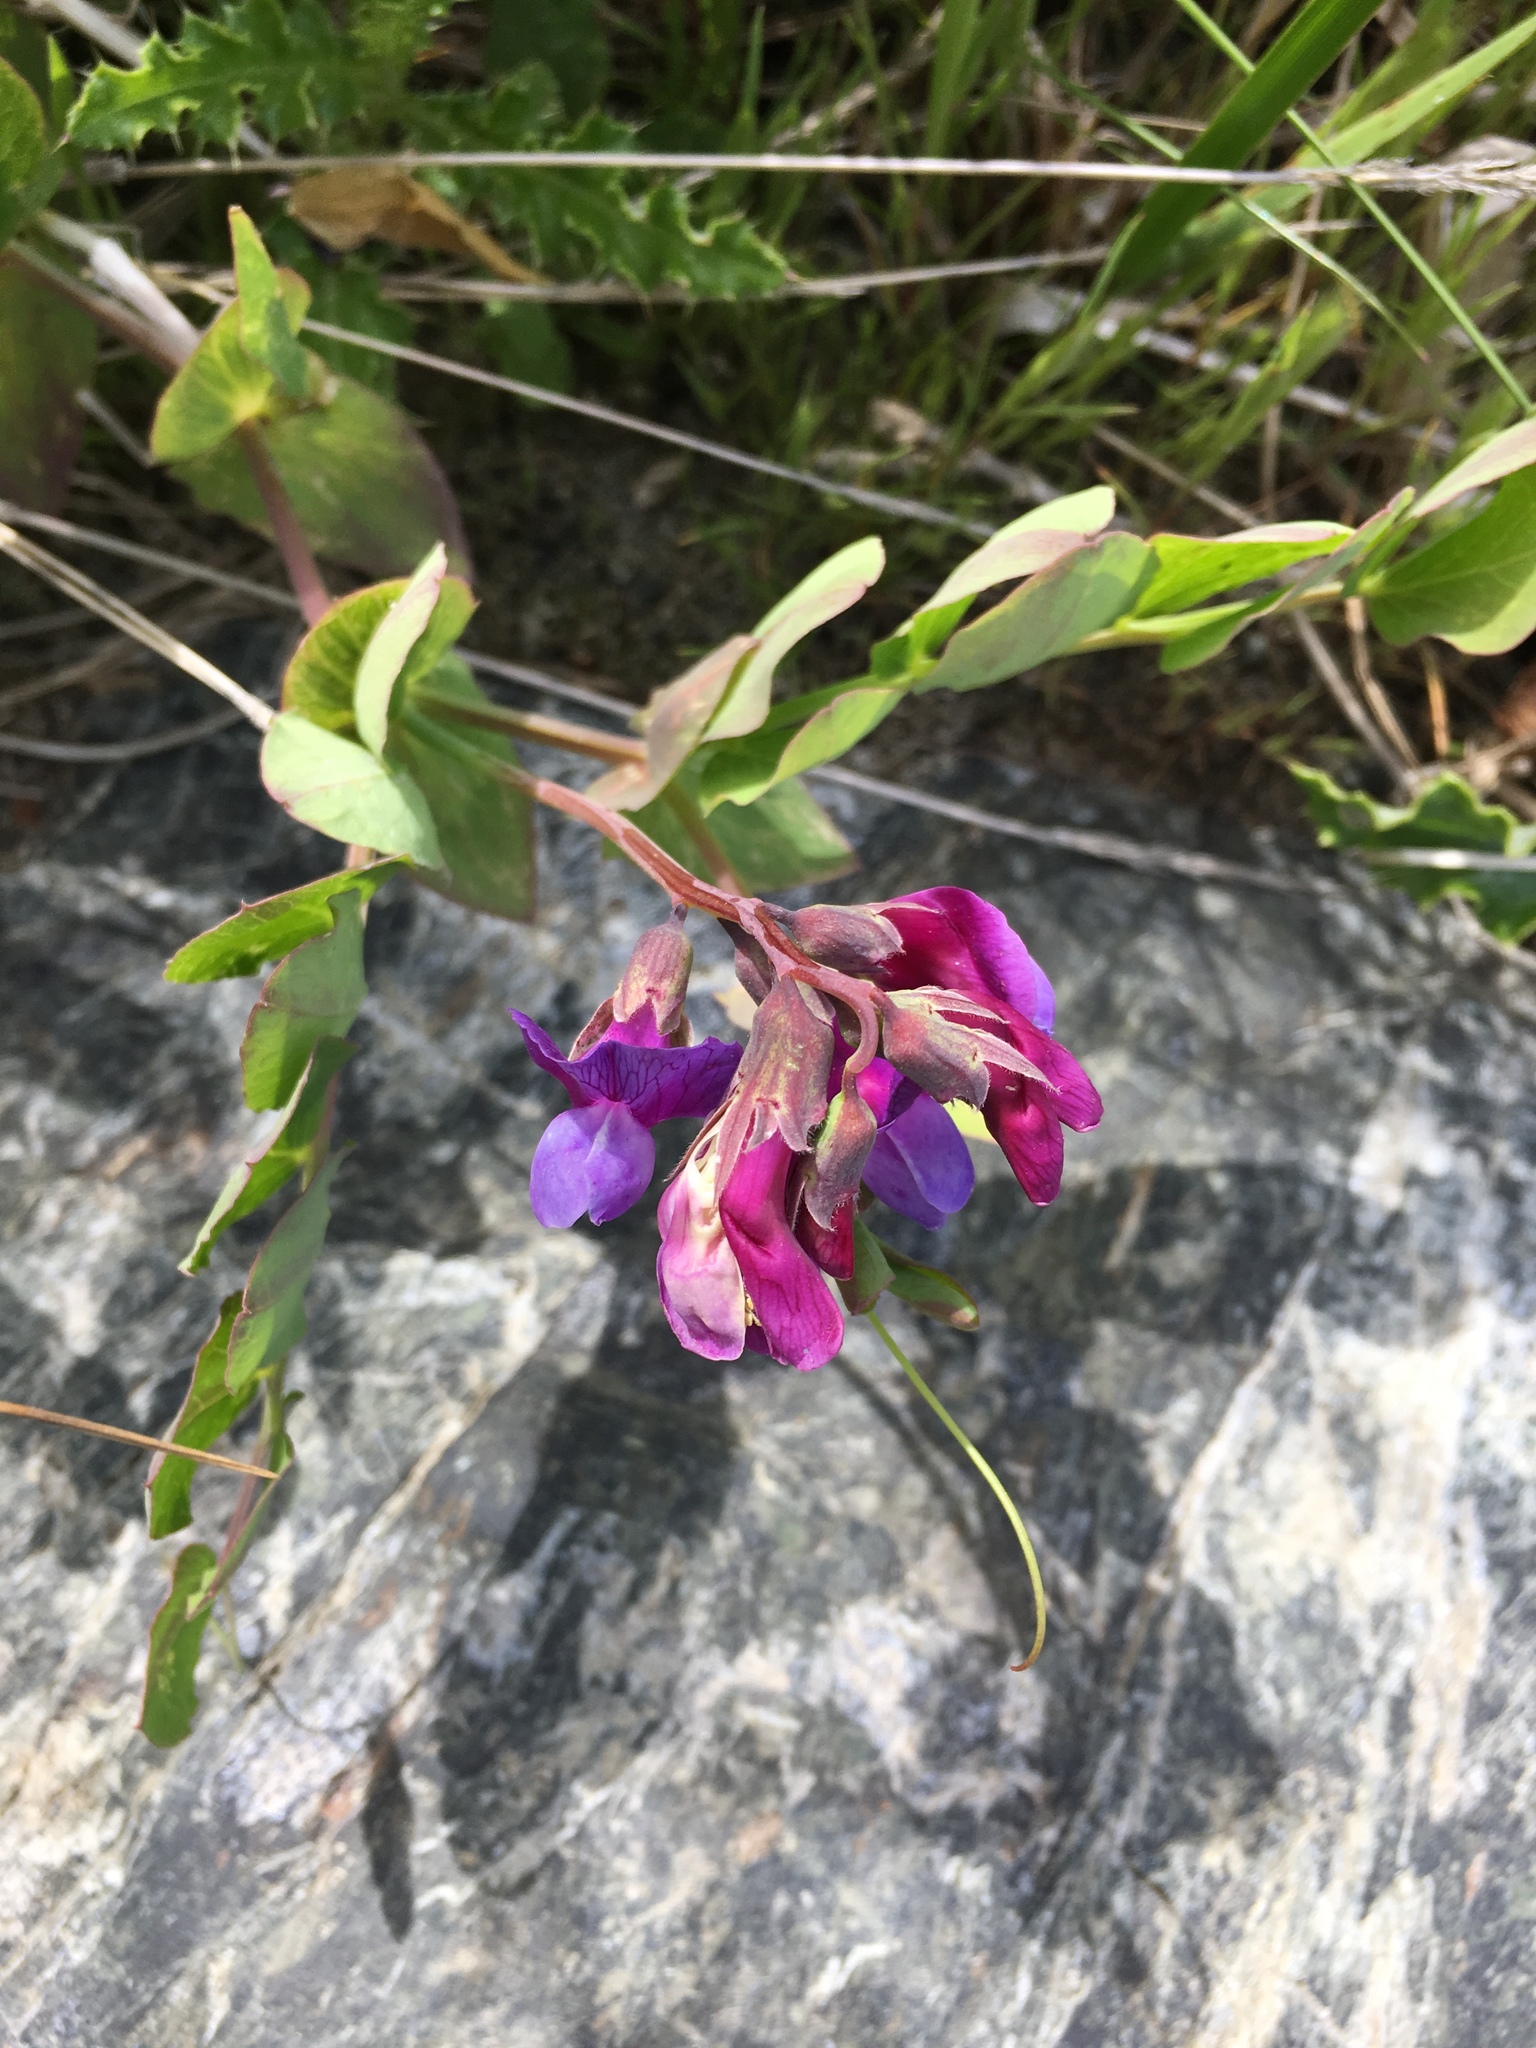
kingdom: Plantae
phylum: Tracheophyta
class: Magnoliopsida
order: Fabales
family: Fabaceae
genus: Lathyrus
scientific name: Lathyrus japonicus
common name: Sea pea
